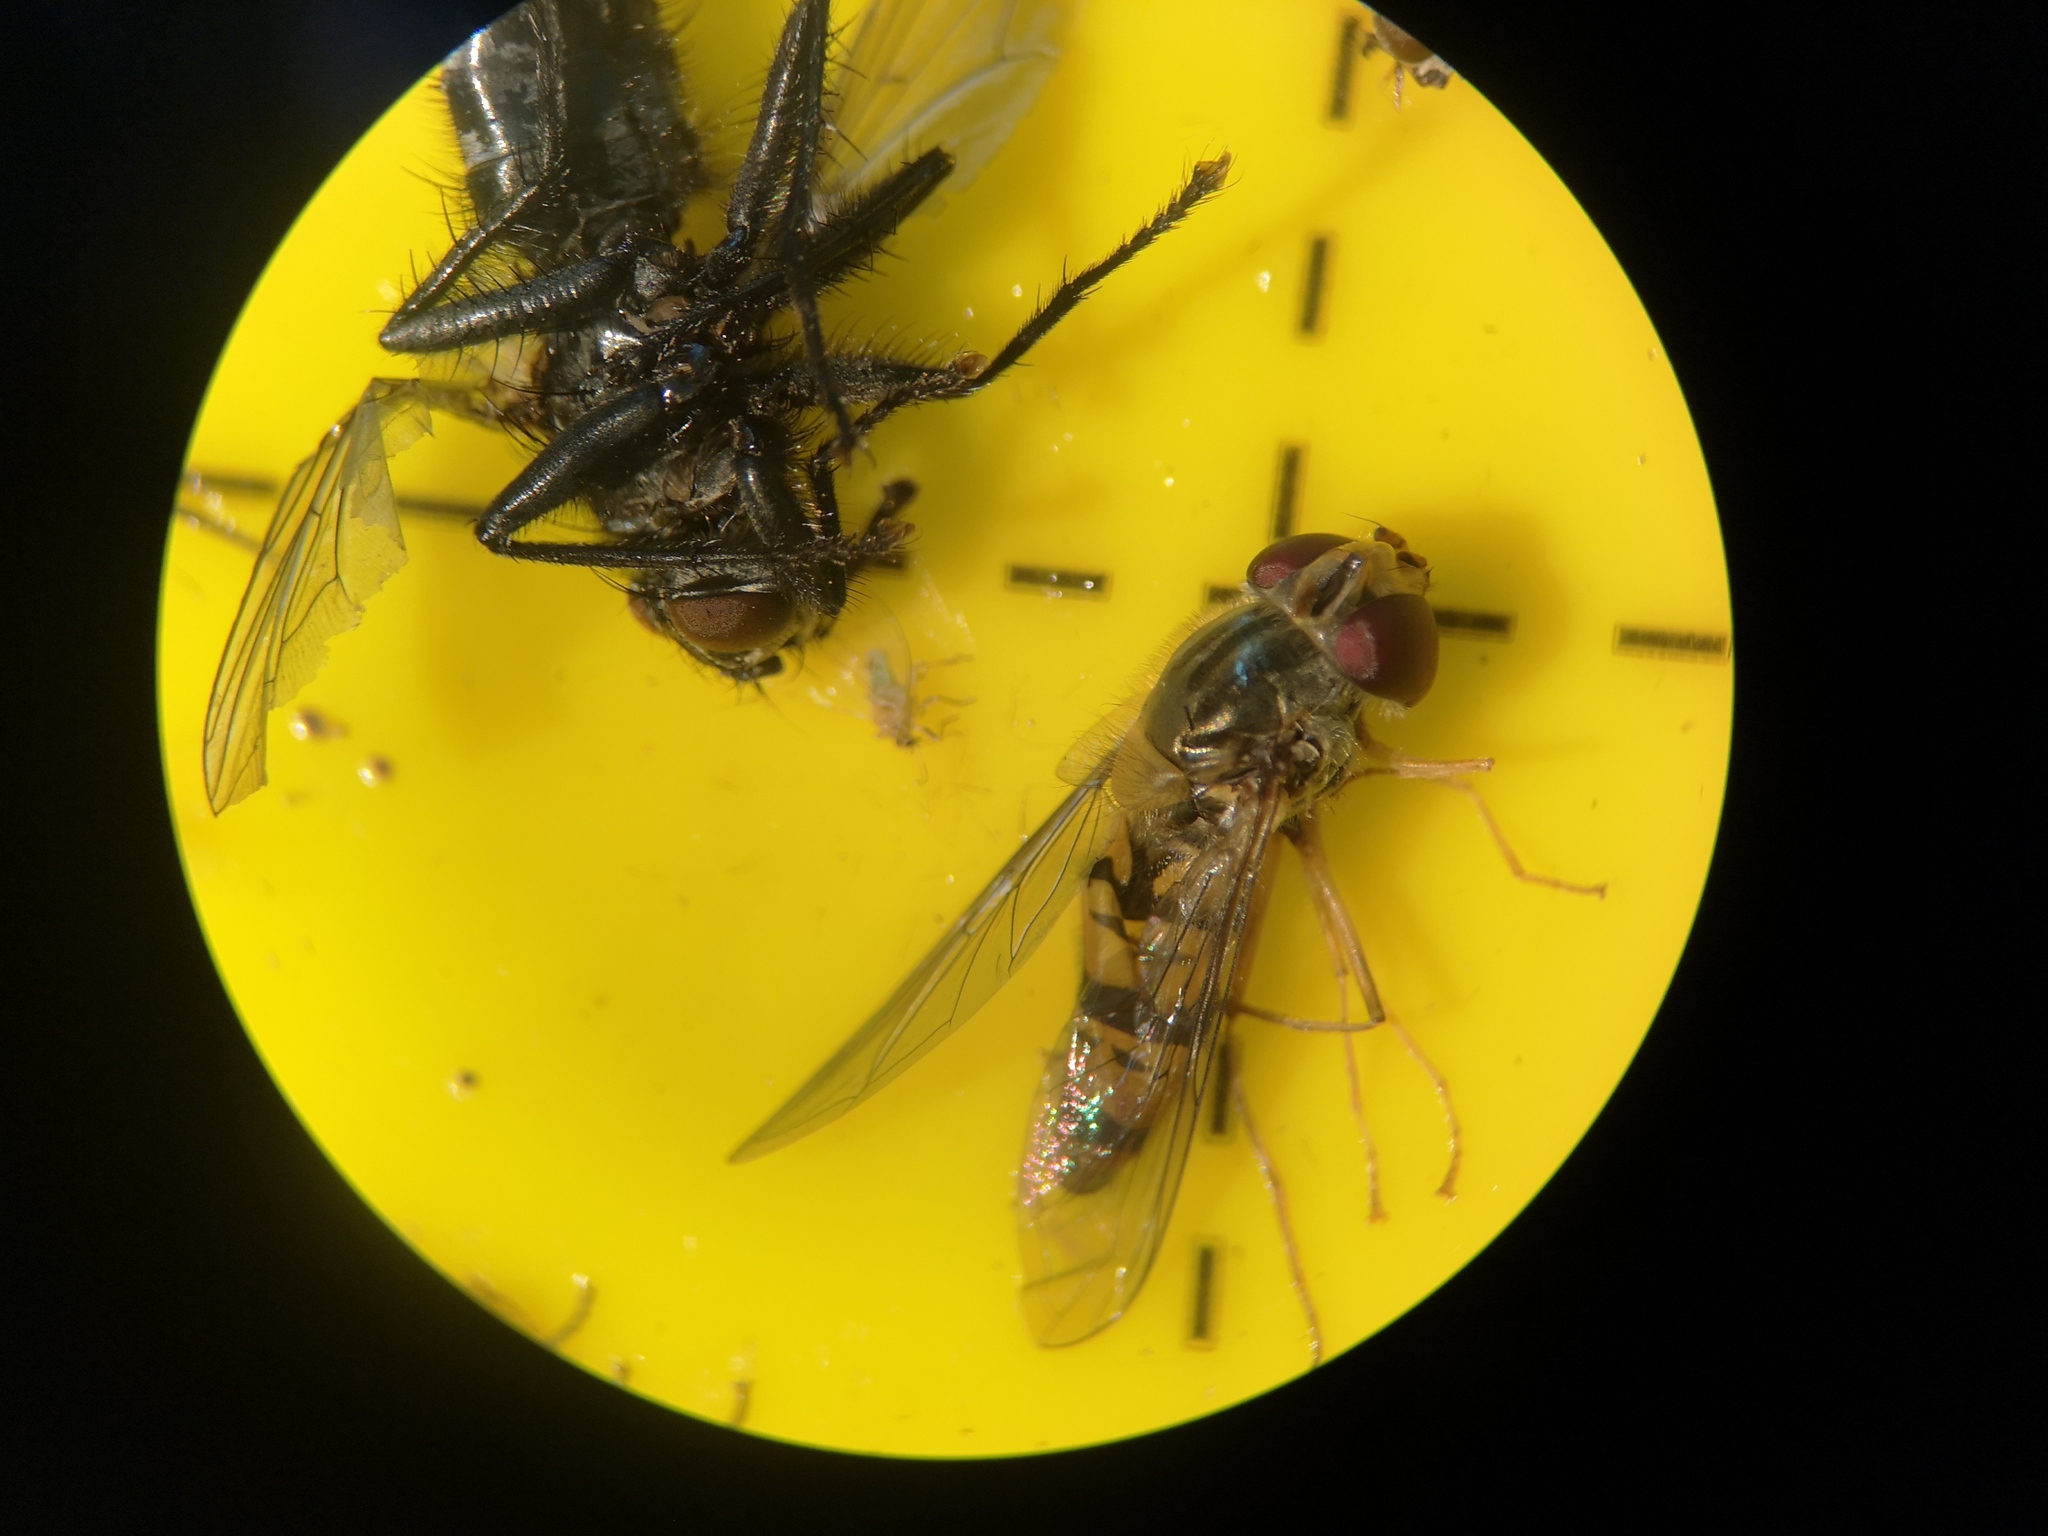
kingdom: Animalia
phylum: Arthropoda
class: Insecta
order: Diptera
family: Syrphidae
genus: Episyrphus
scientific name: Episyrphus balteatus
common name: Marmalade hoverfly
